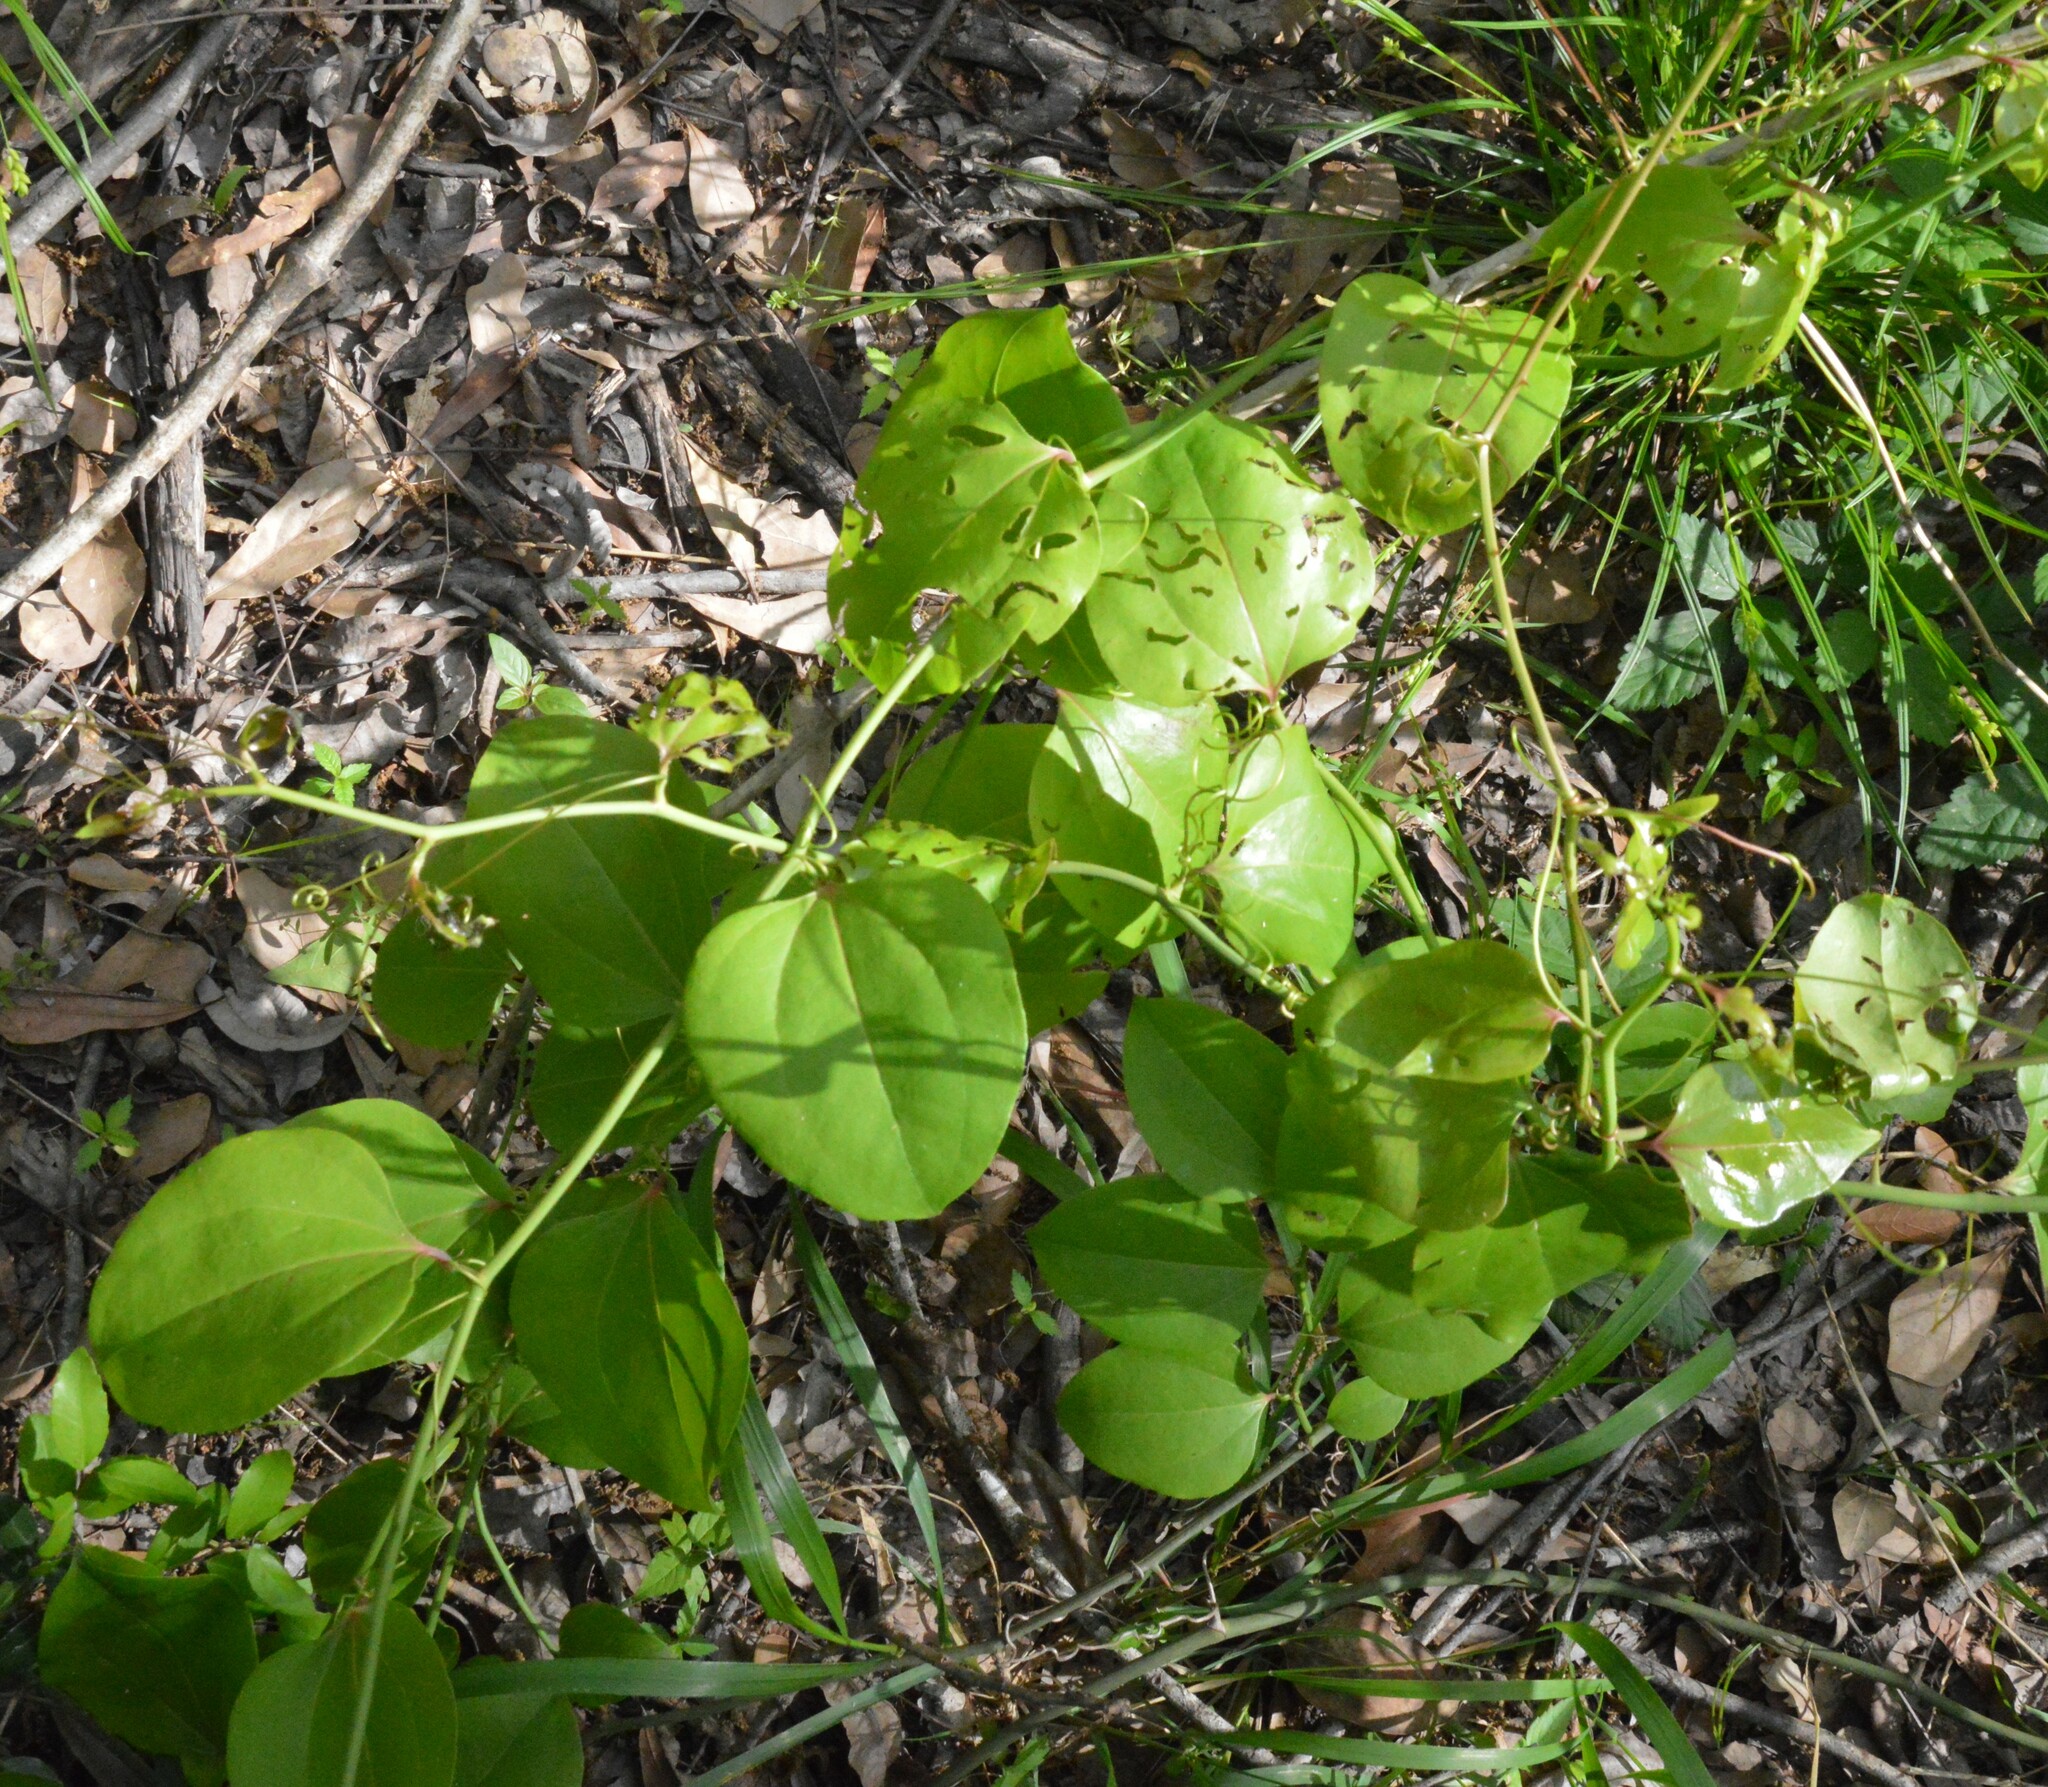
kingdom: Plantae
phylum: Tracheophyta
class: Liliopsida
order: Liliales
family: Smilacaceae
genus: Smilax
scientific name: Smilax rotundifolia
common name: Bullbriar
